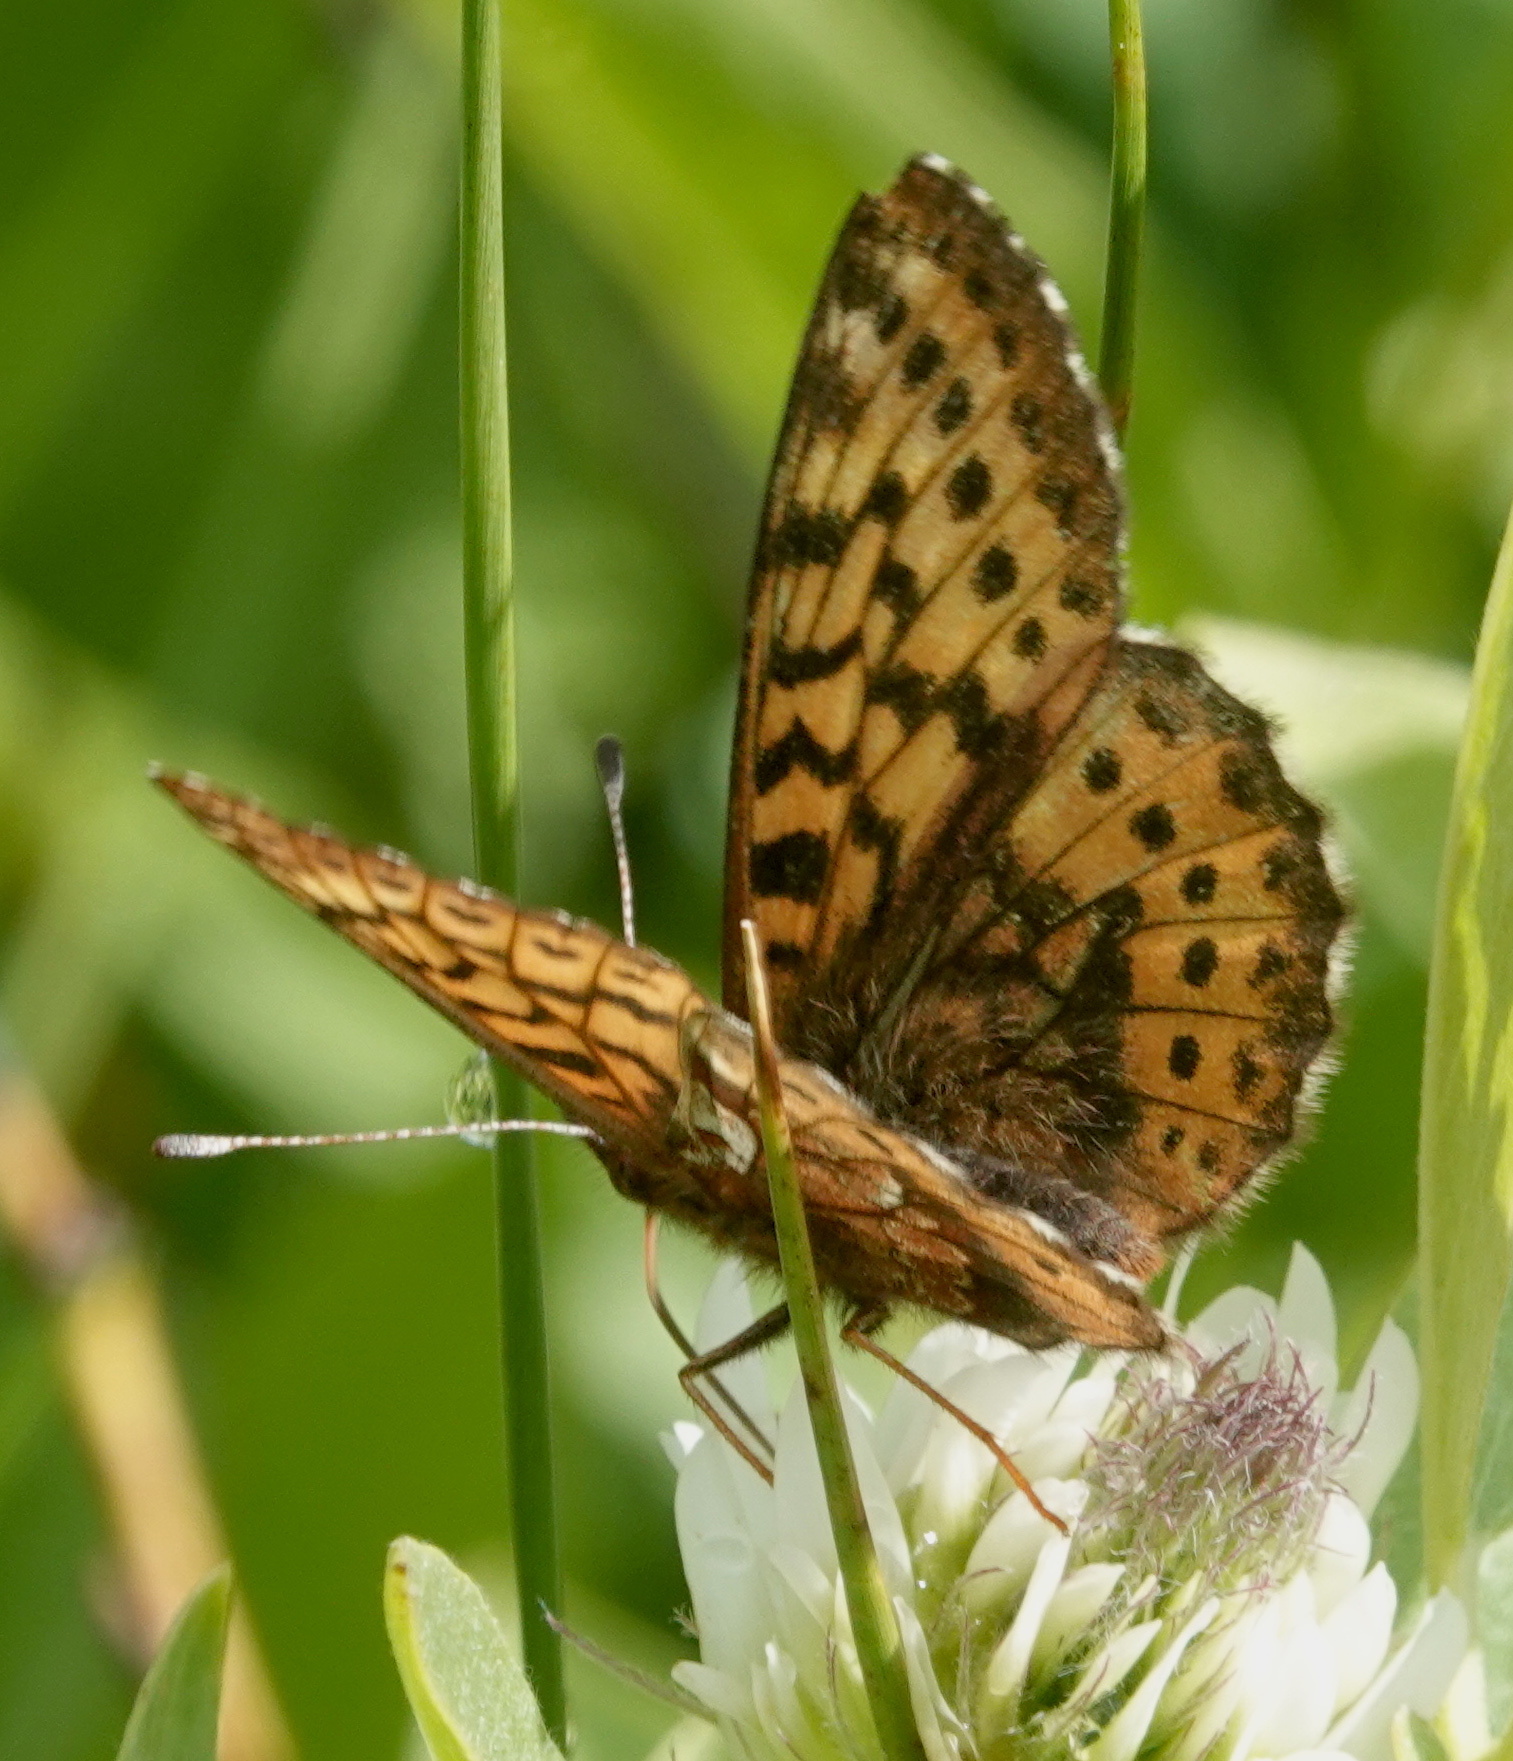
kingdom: Animalia
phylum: Arthropoda
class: Insecta
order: Lepidoptera
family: Nymphalidae
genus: Boloria
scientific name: Boloria frigga
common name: Frigga's fritillary
